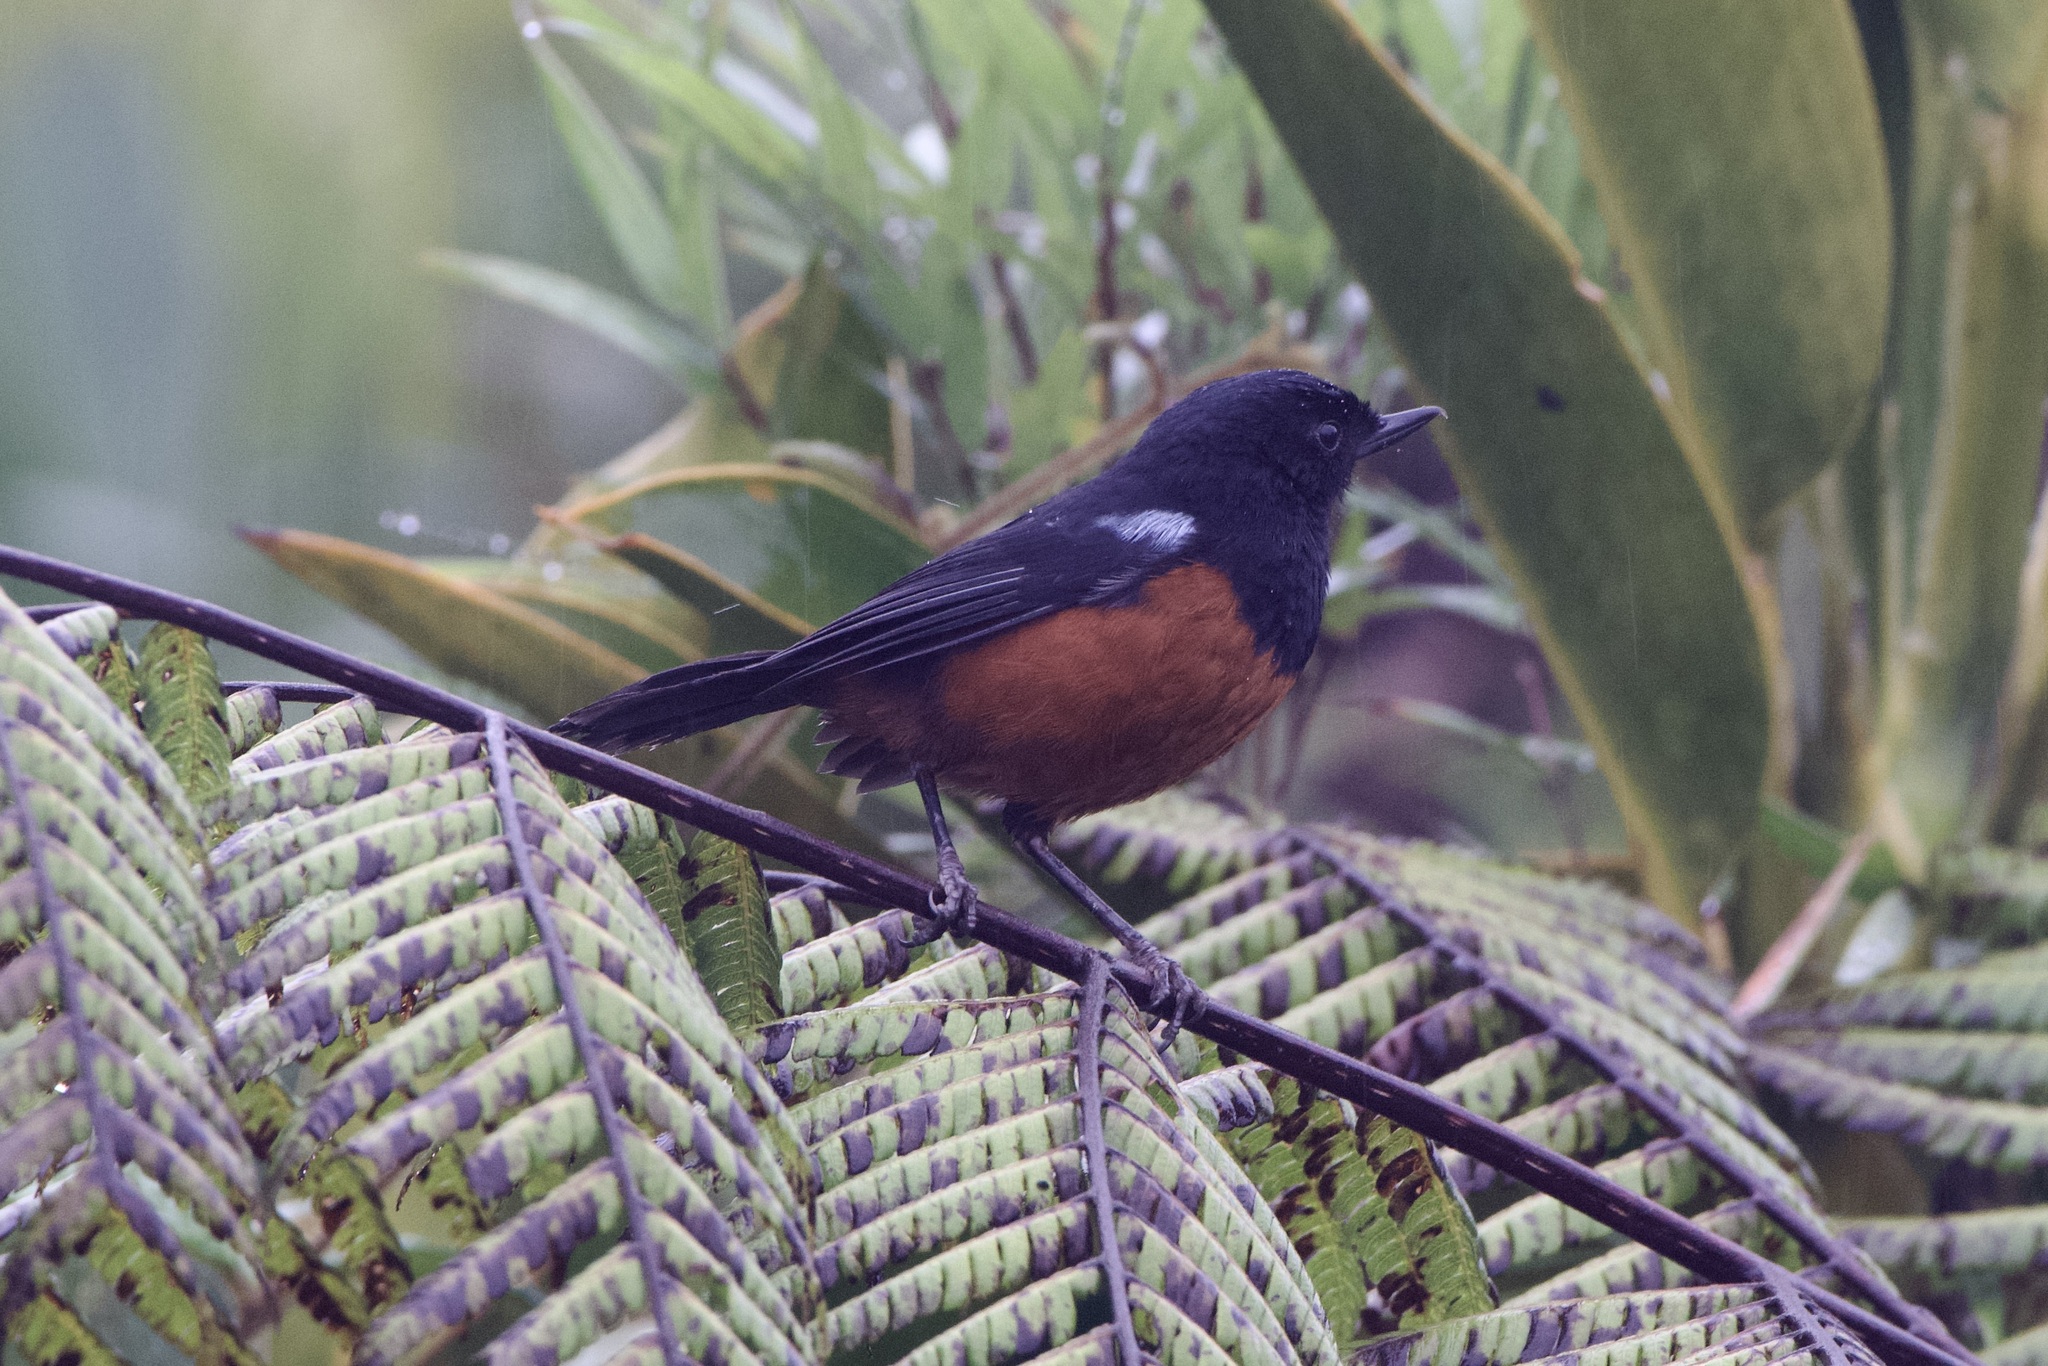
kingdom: Animalia
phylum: Chordata
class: Aves
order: Passeriformes
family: Thraupidae
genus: Diglossa
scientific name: Diglossa gloriosissima
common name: Chestnut-bellied flowerpiercer
